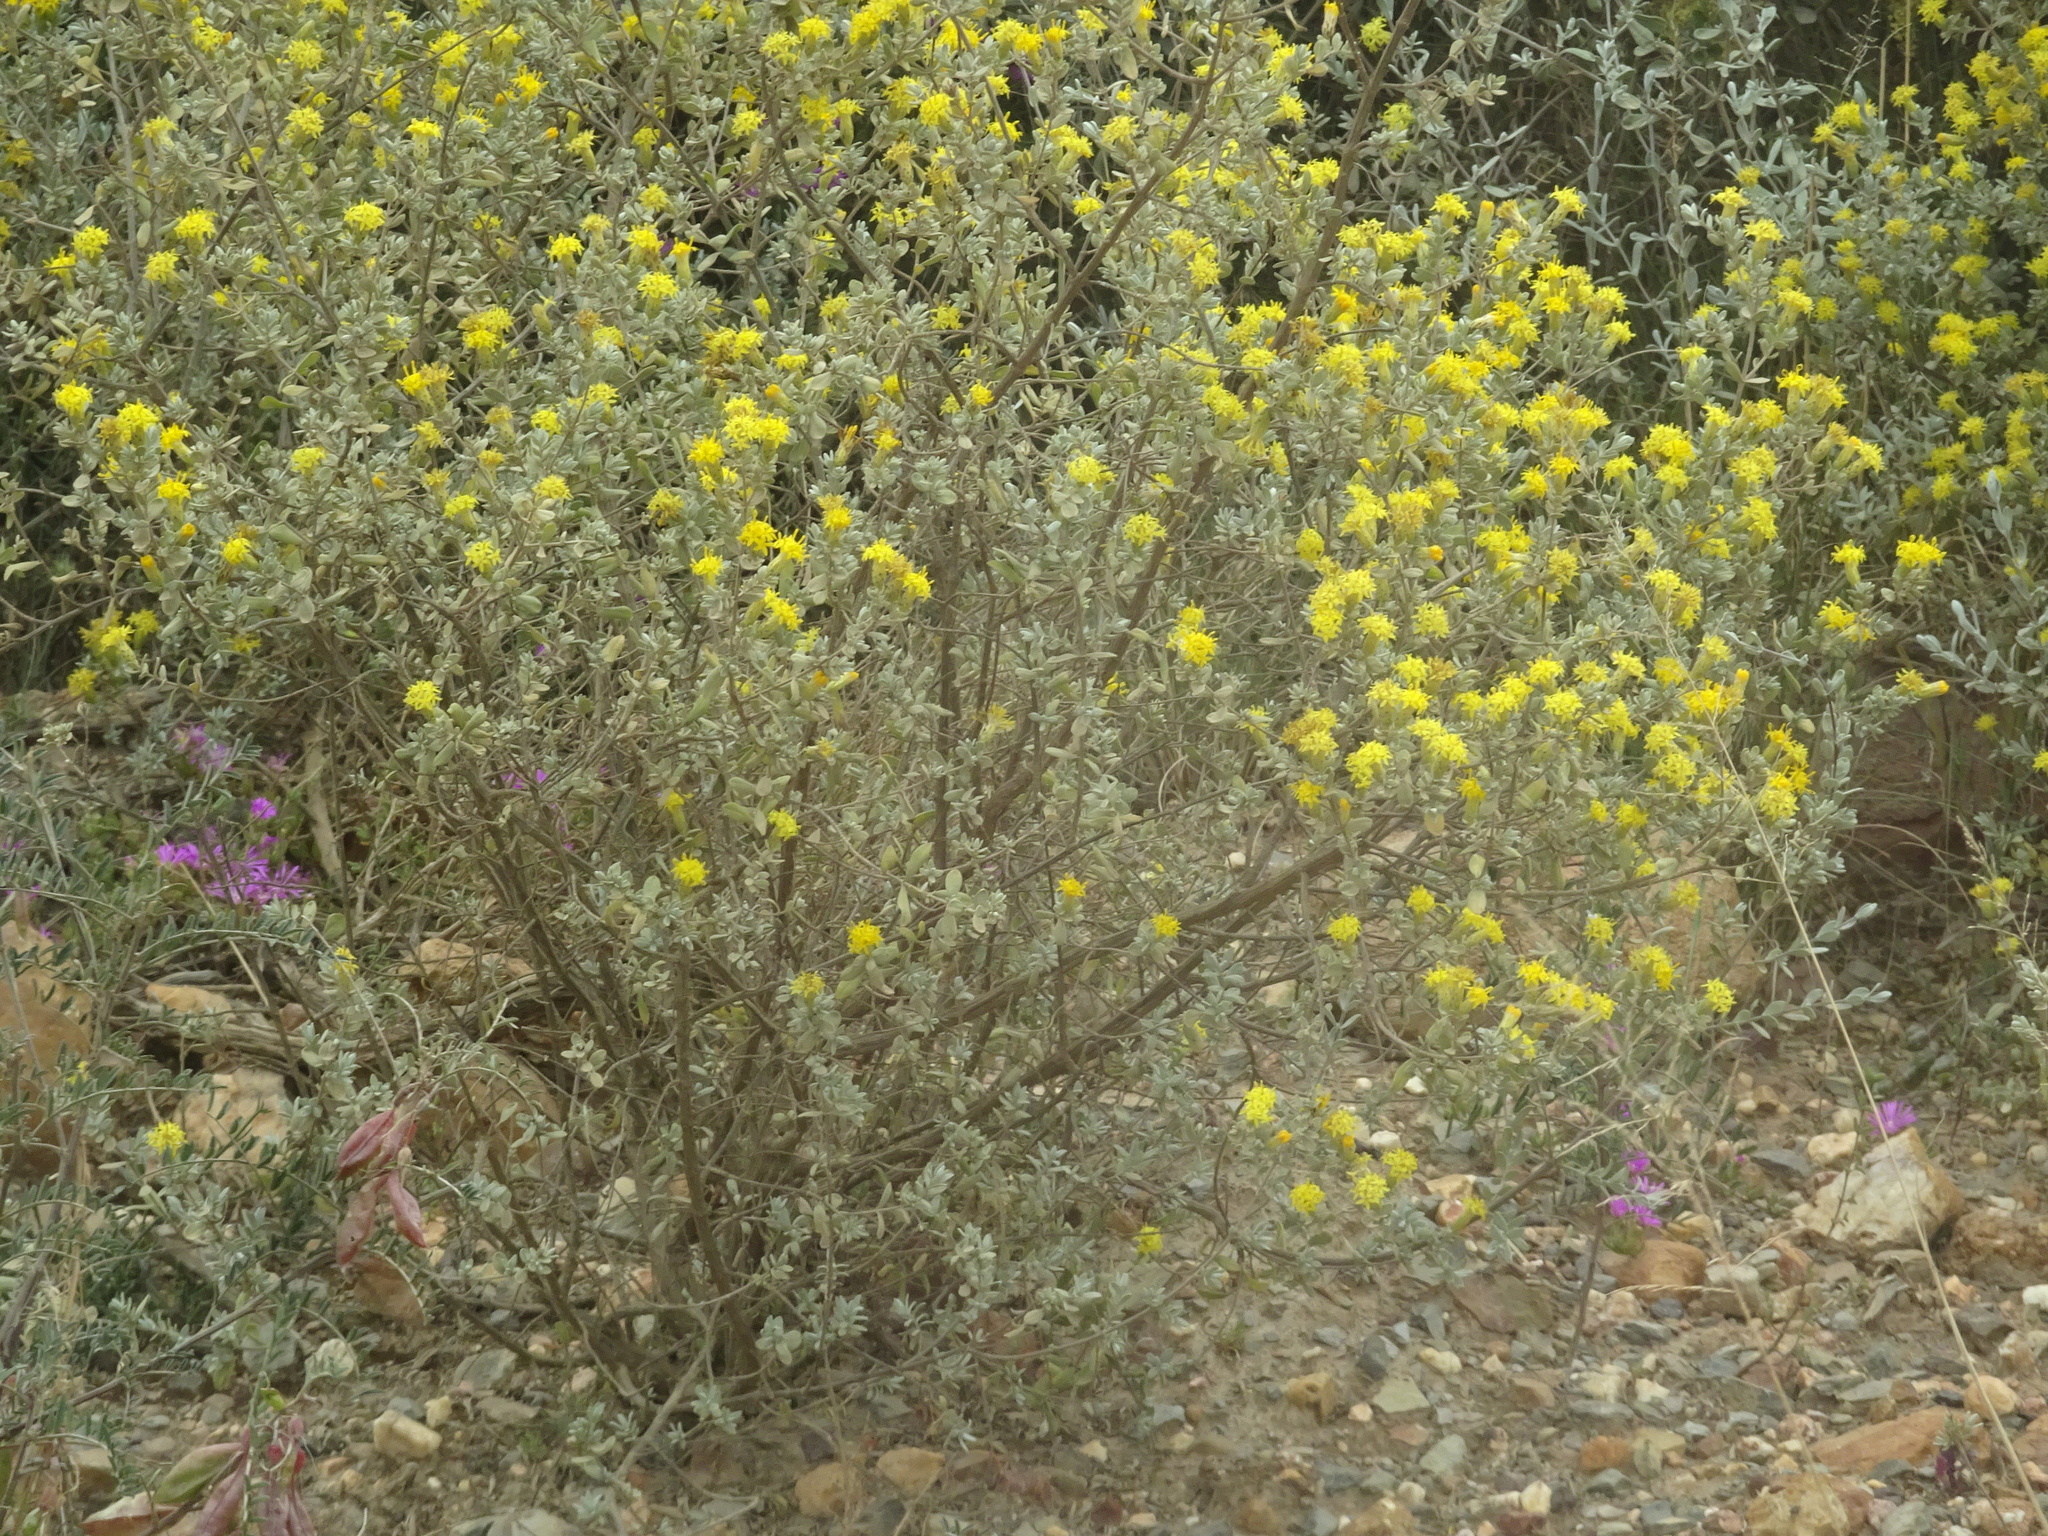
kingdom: Plantae
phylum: Tracheophyta
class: Magnoliopsida
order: Asterales
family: Asteraceae
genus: Pteronia
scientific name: Pteronia incana
